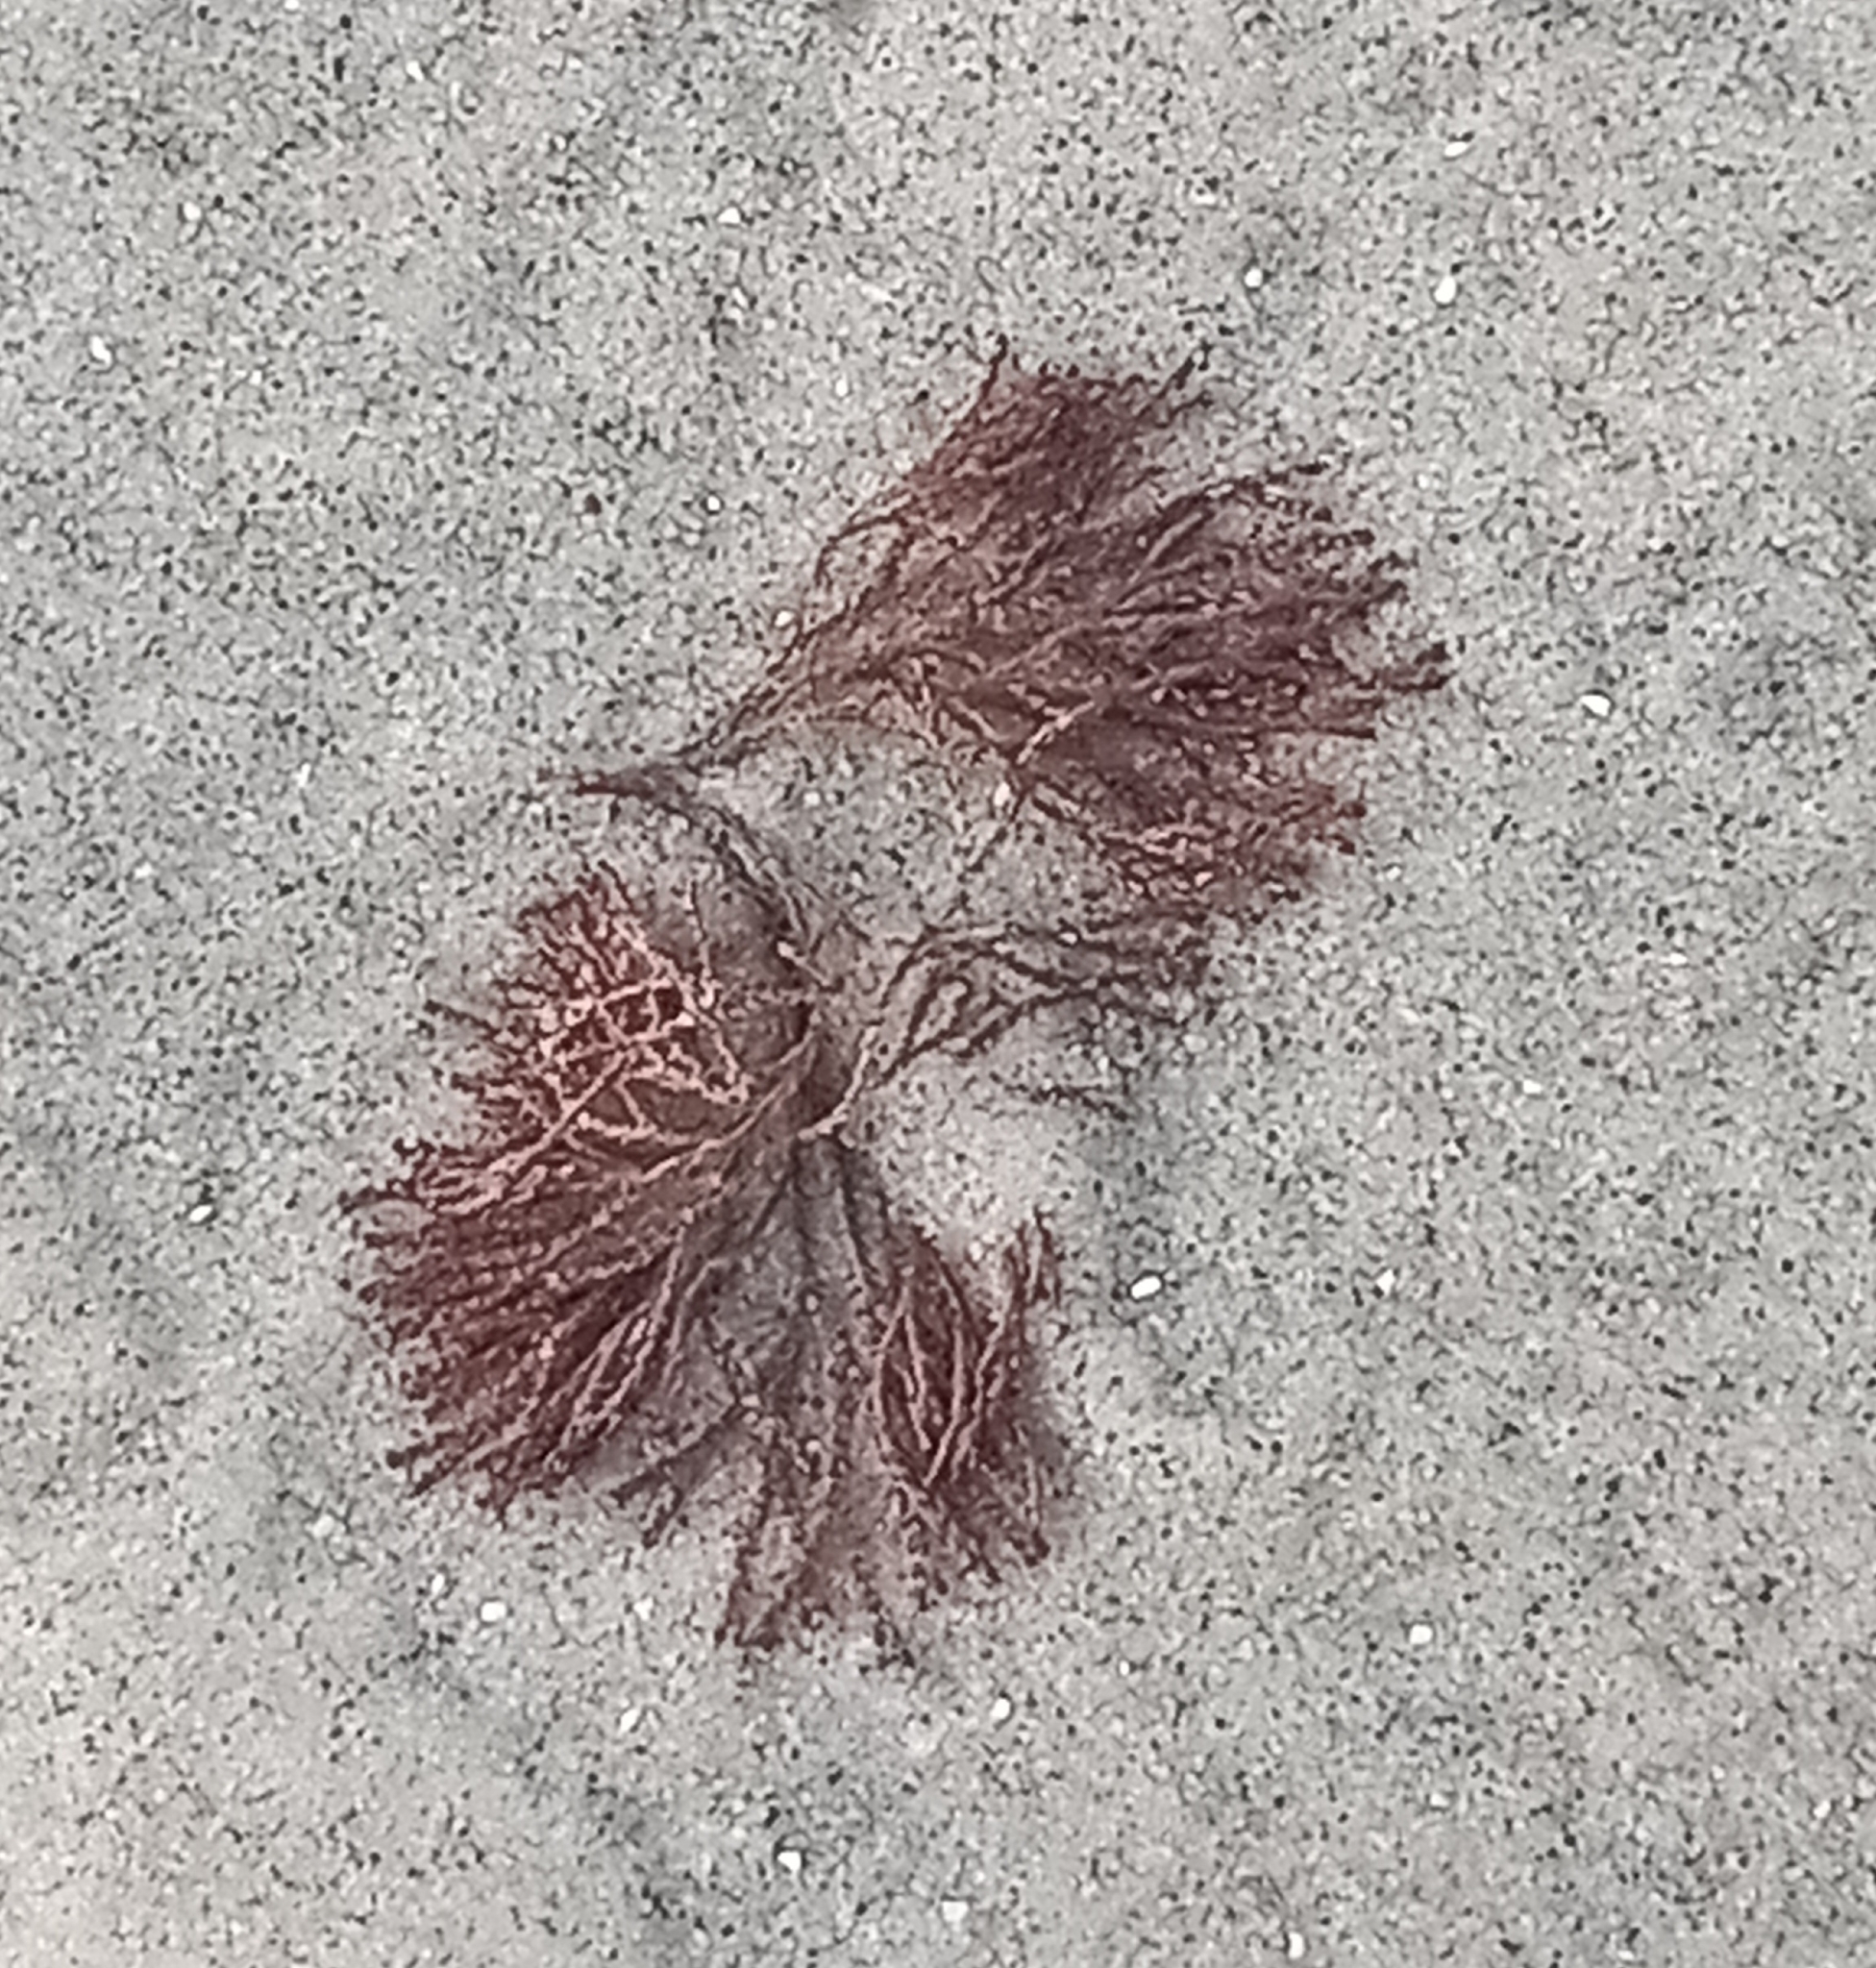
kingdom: Animalia
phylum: Bryozoa
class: Gymnolaemata
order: Cheilostomatida
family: Bugulidae
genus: Bugula
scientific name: Bugula neritina
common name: Brown bryozoan
